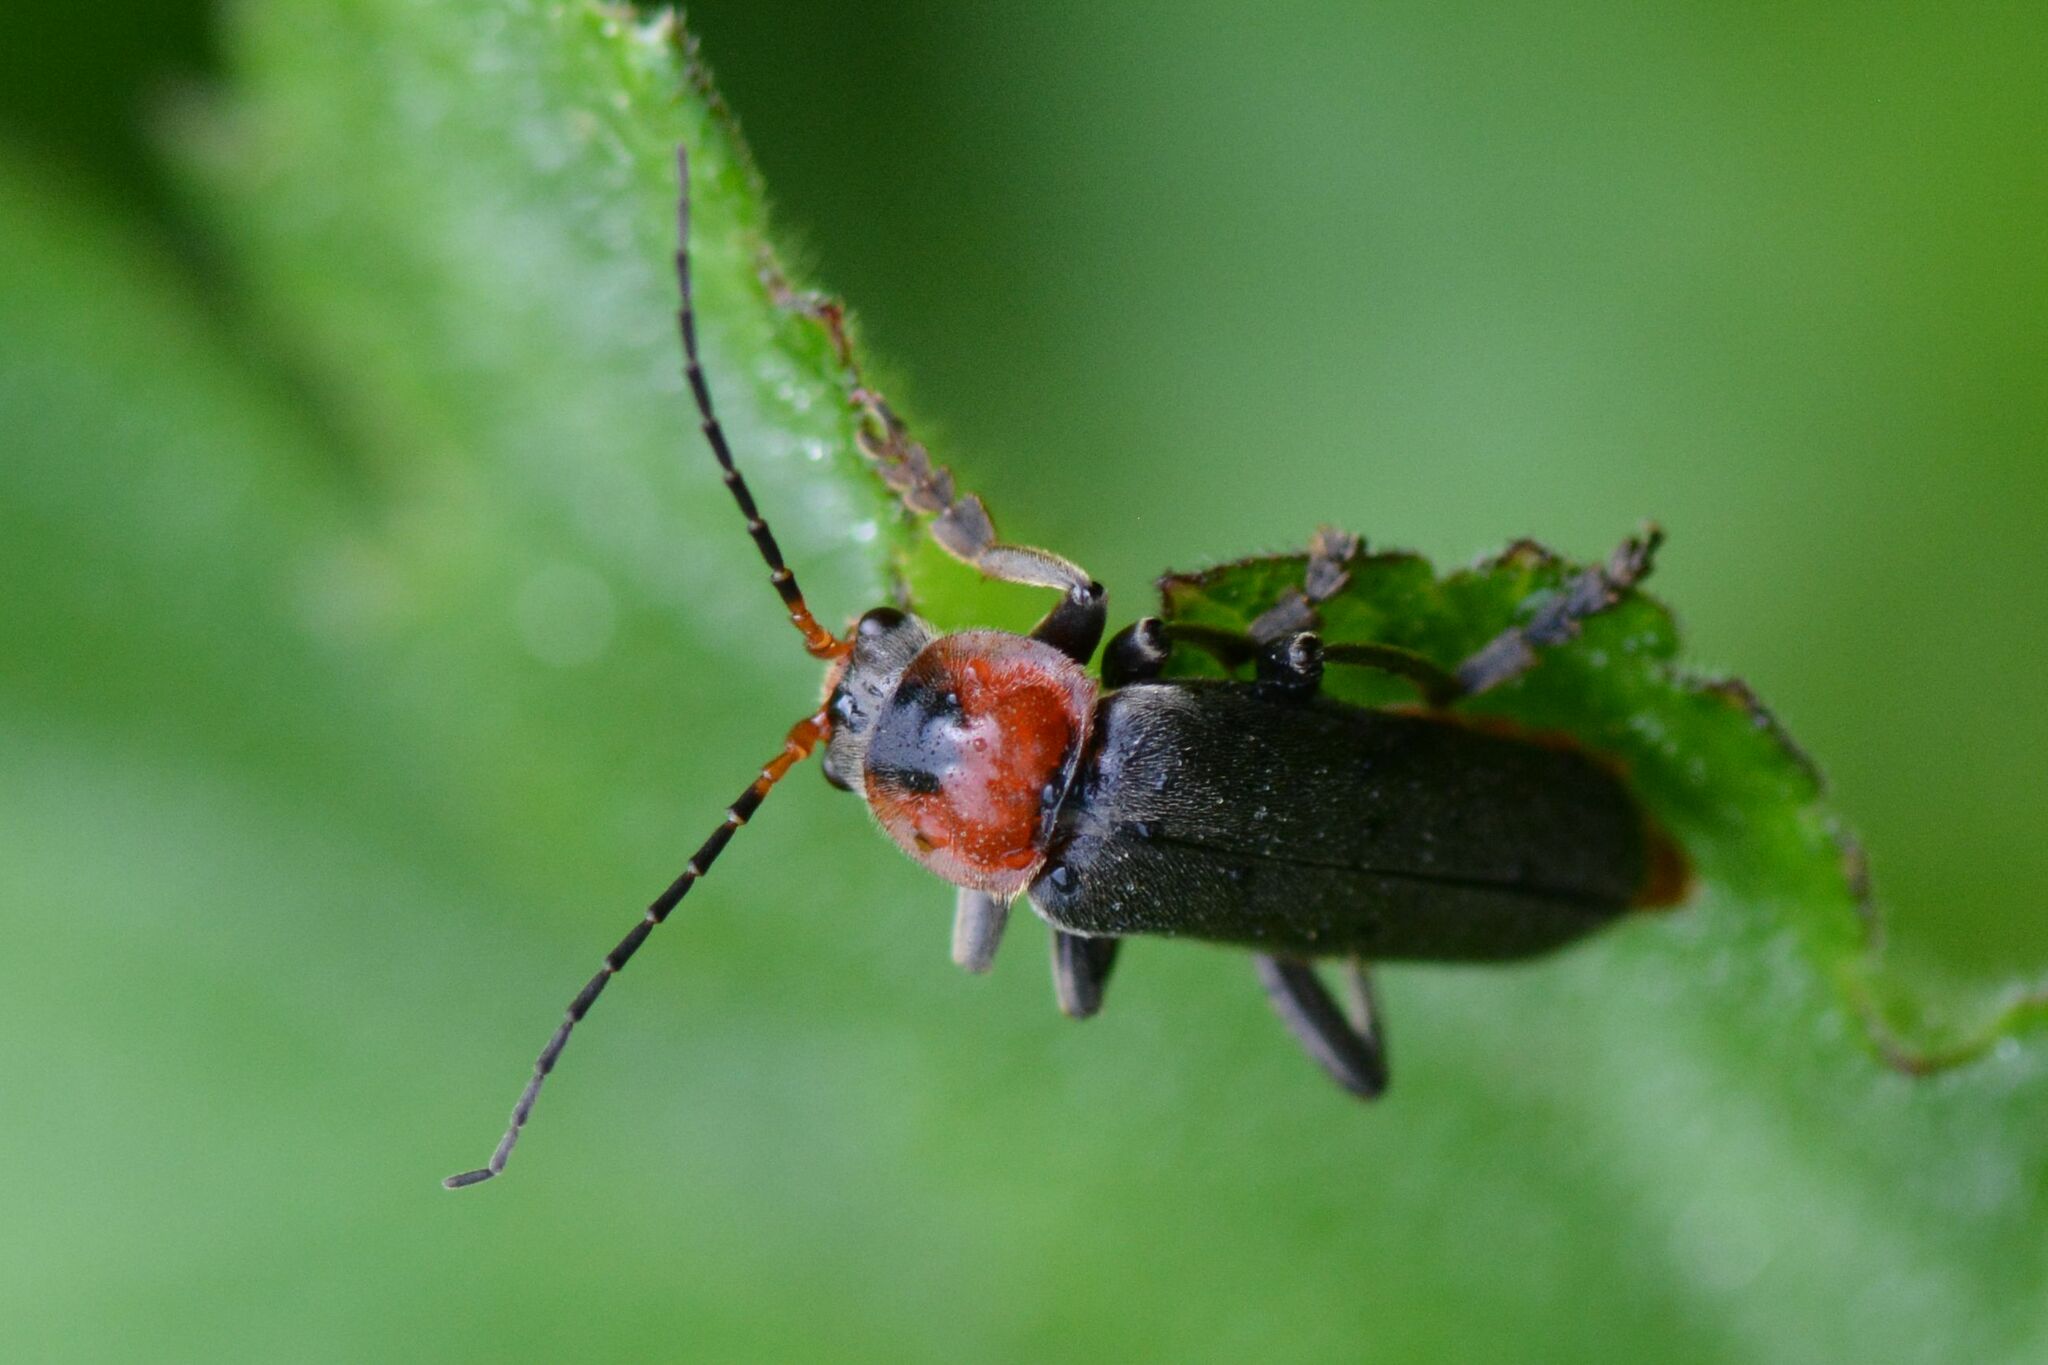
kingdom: Animalia
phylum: Arthropoda
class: Insecta
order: Coleoptera
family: Cantharidae
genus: Cantharis
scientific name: Cantharis fusca
